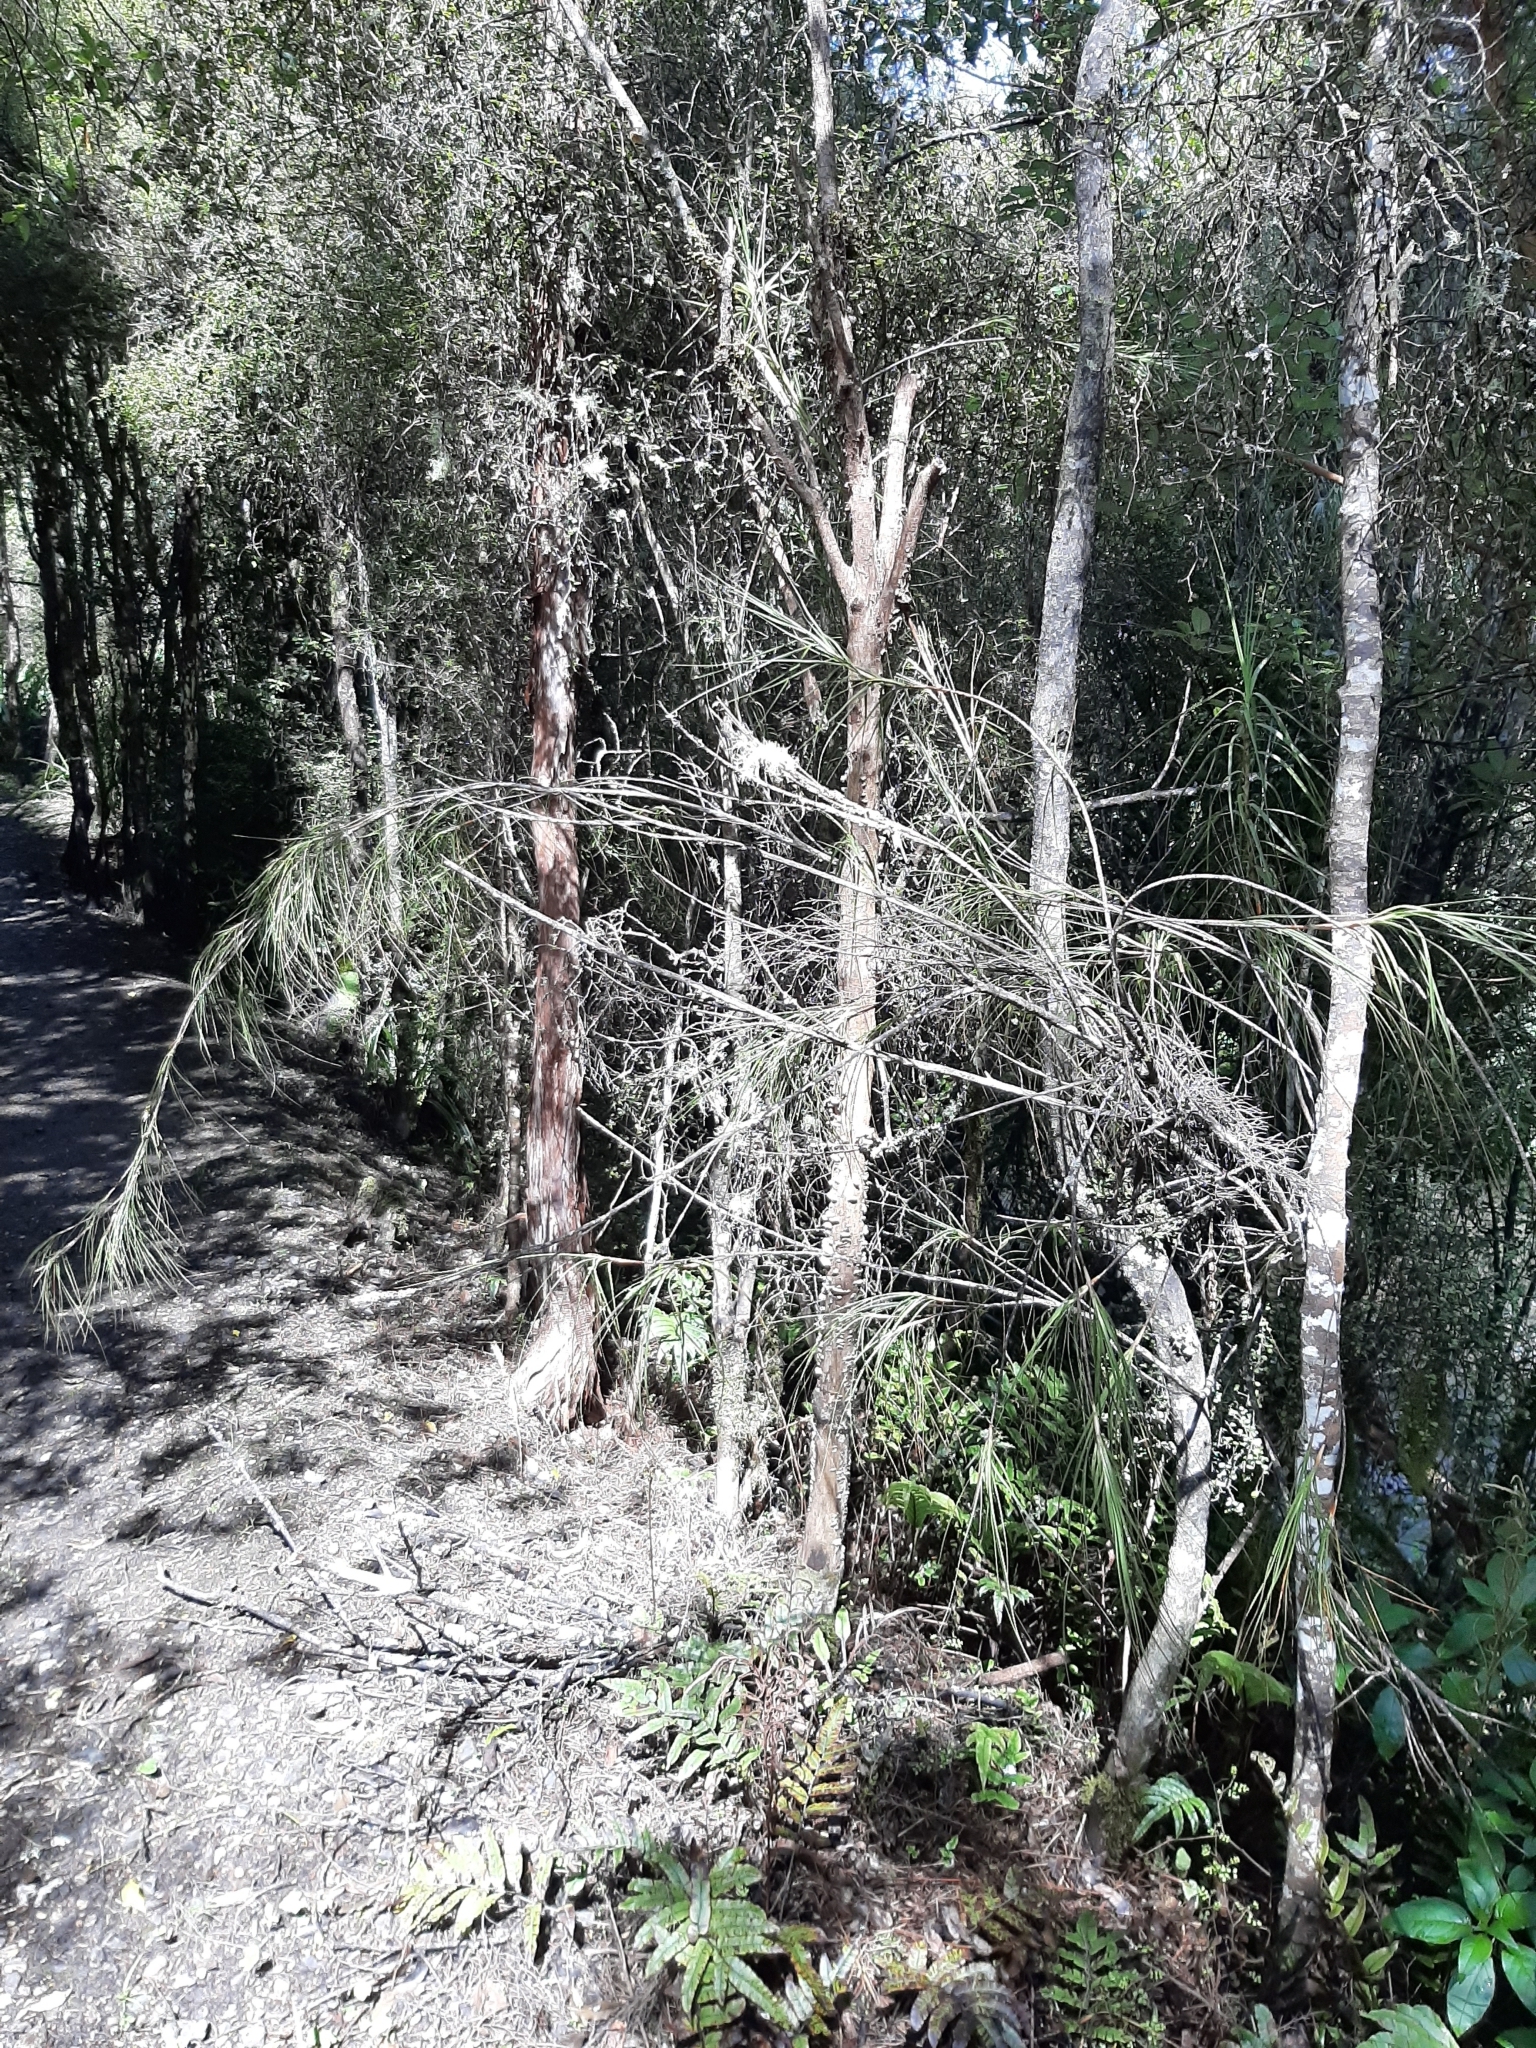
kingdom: Plantae
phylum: Tracheophyta
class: Magnoliopsida
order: Ericales
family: Ericaceae
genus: Dracophyllum
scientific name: Dracophyllum longifolium
